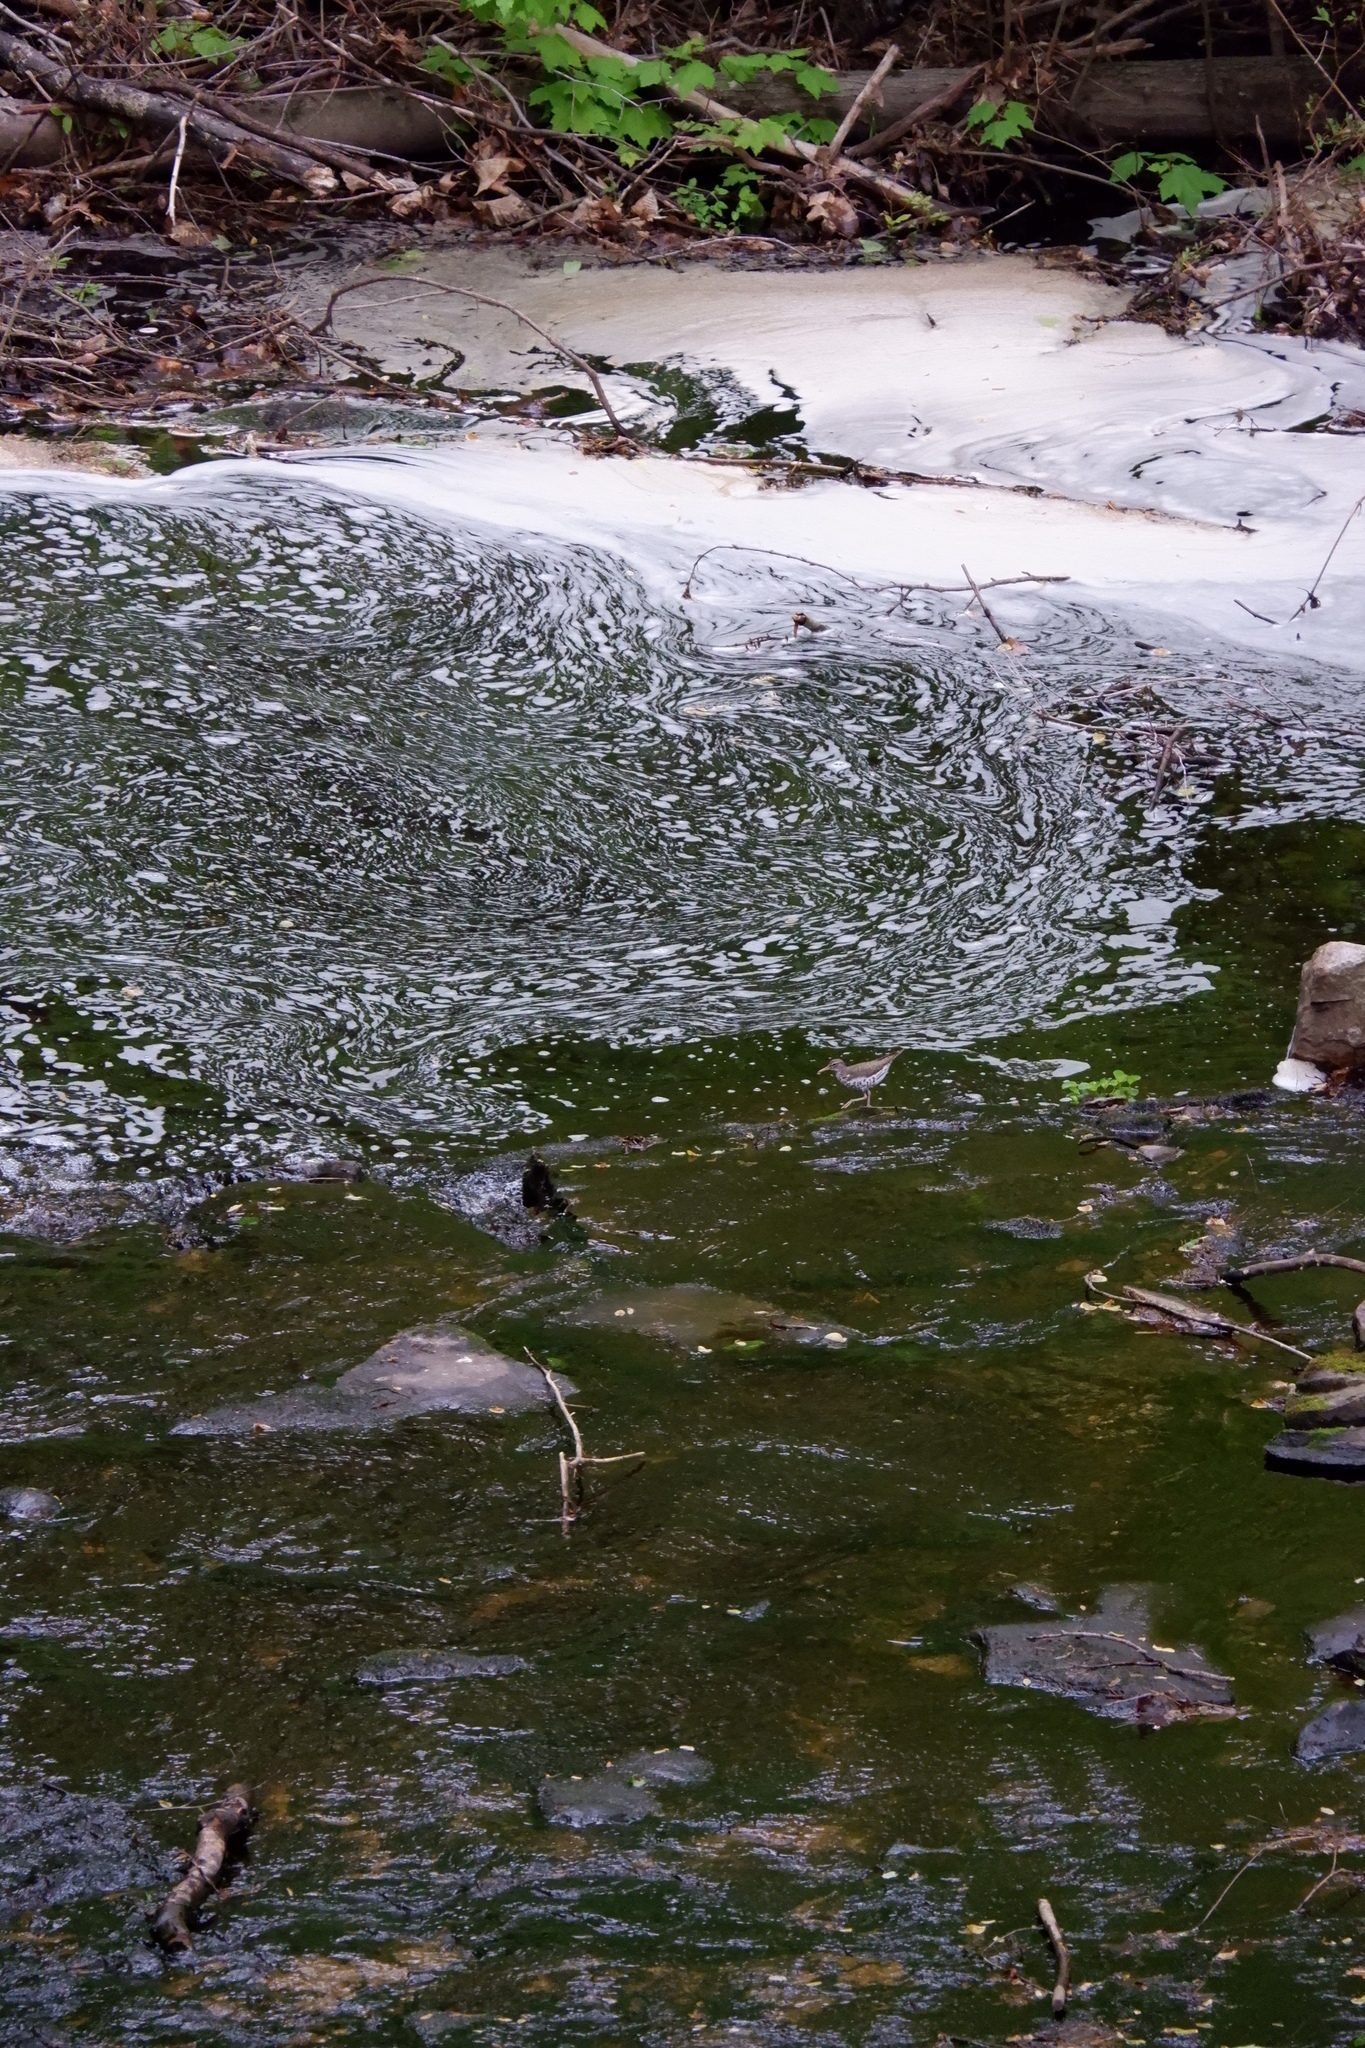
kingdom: Animalia
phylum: Chordata
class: Aves
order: Charadriiformes
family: Scolopacidae
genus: Actitis
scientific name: Actitis macularius
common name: Spotted sandpiper
